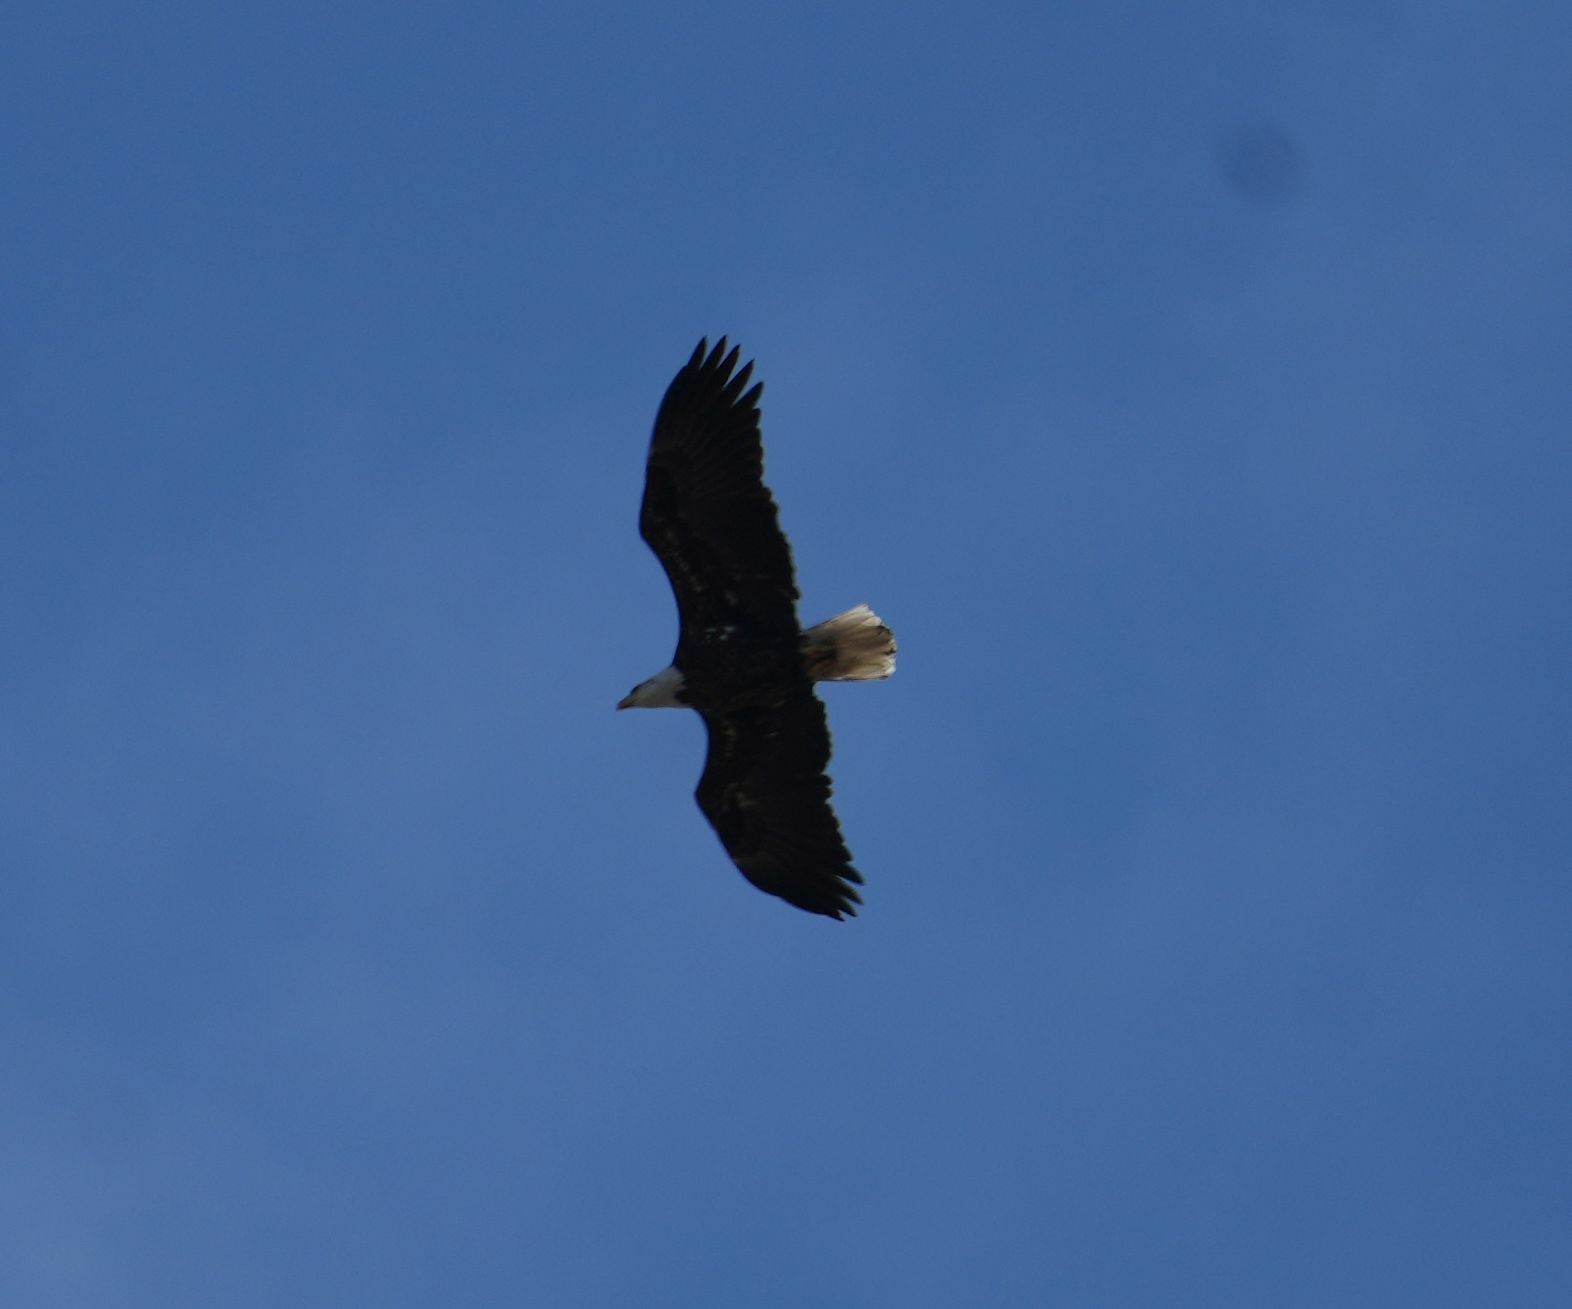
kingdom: Animalia
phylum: Chordata
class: Aves
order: Accipitriformes
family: Accipitridae
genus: Haliaeetus
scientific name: Haliaeetus leucocephalus
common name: Bald eagle
